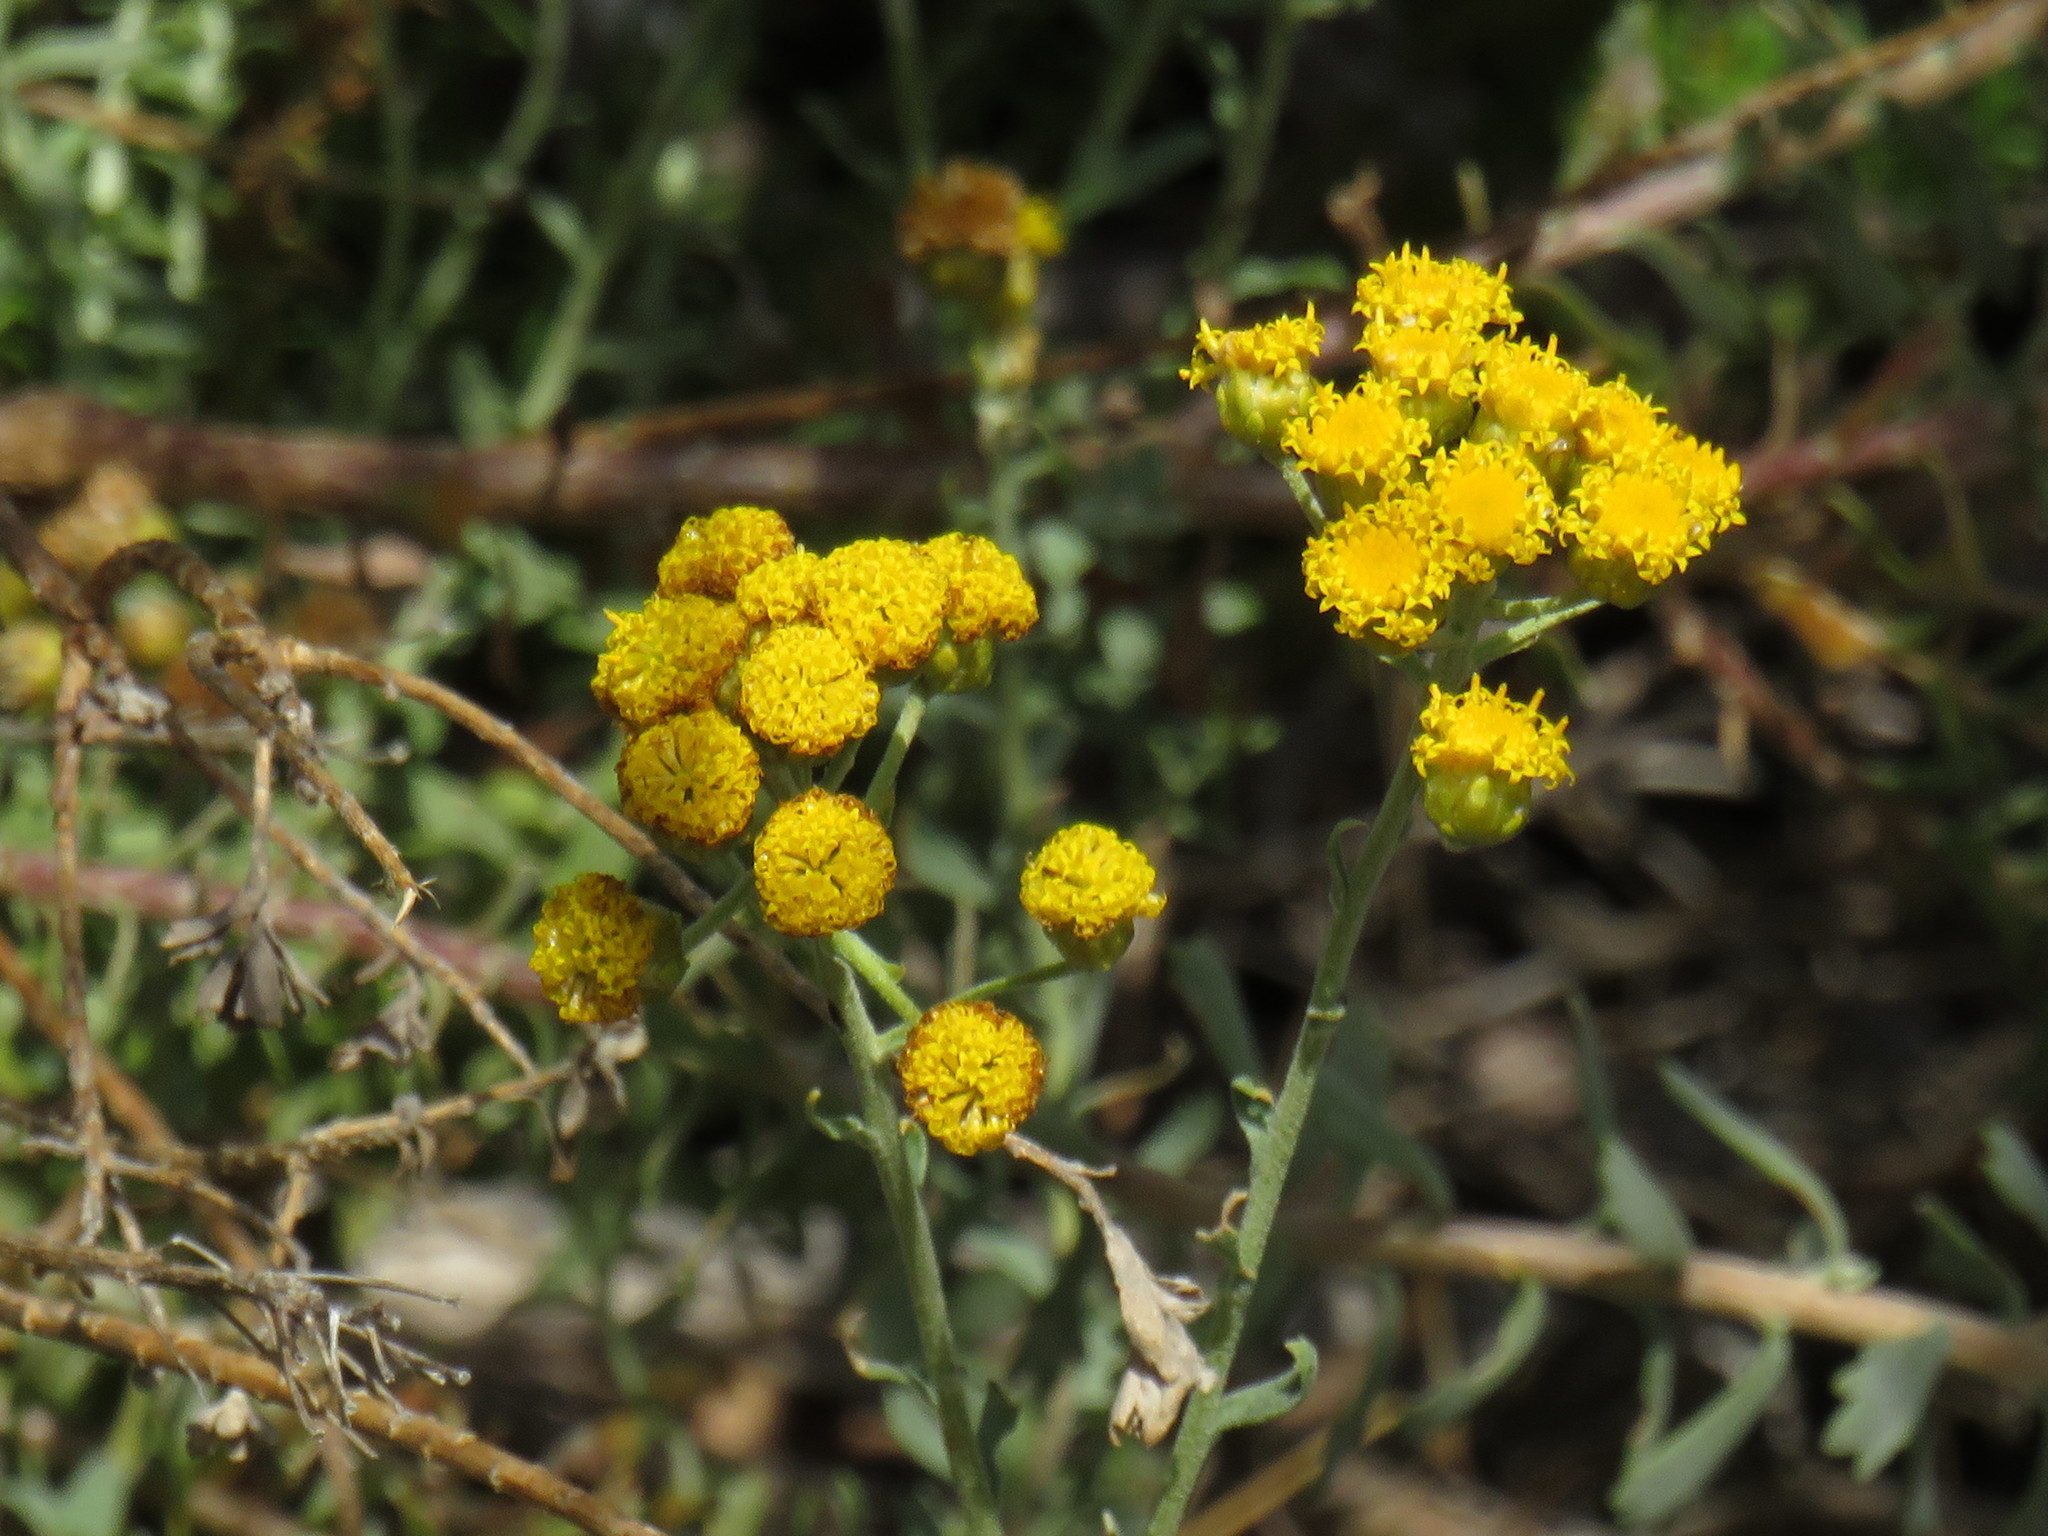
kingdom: Plantae
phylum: Tracheophyta
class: Magnoliopsida
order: Asterales
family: Asteraceae
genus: Athanasia
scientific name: Athanasia trifurcata
